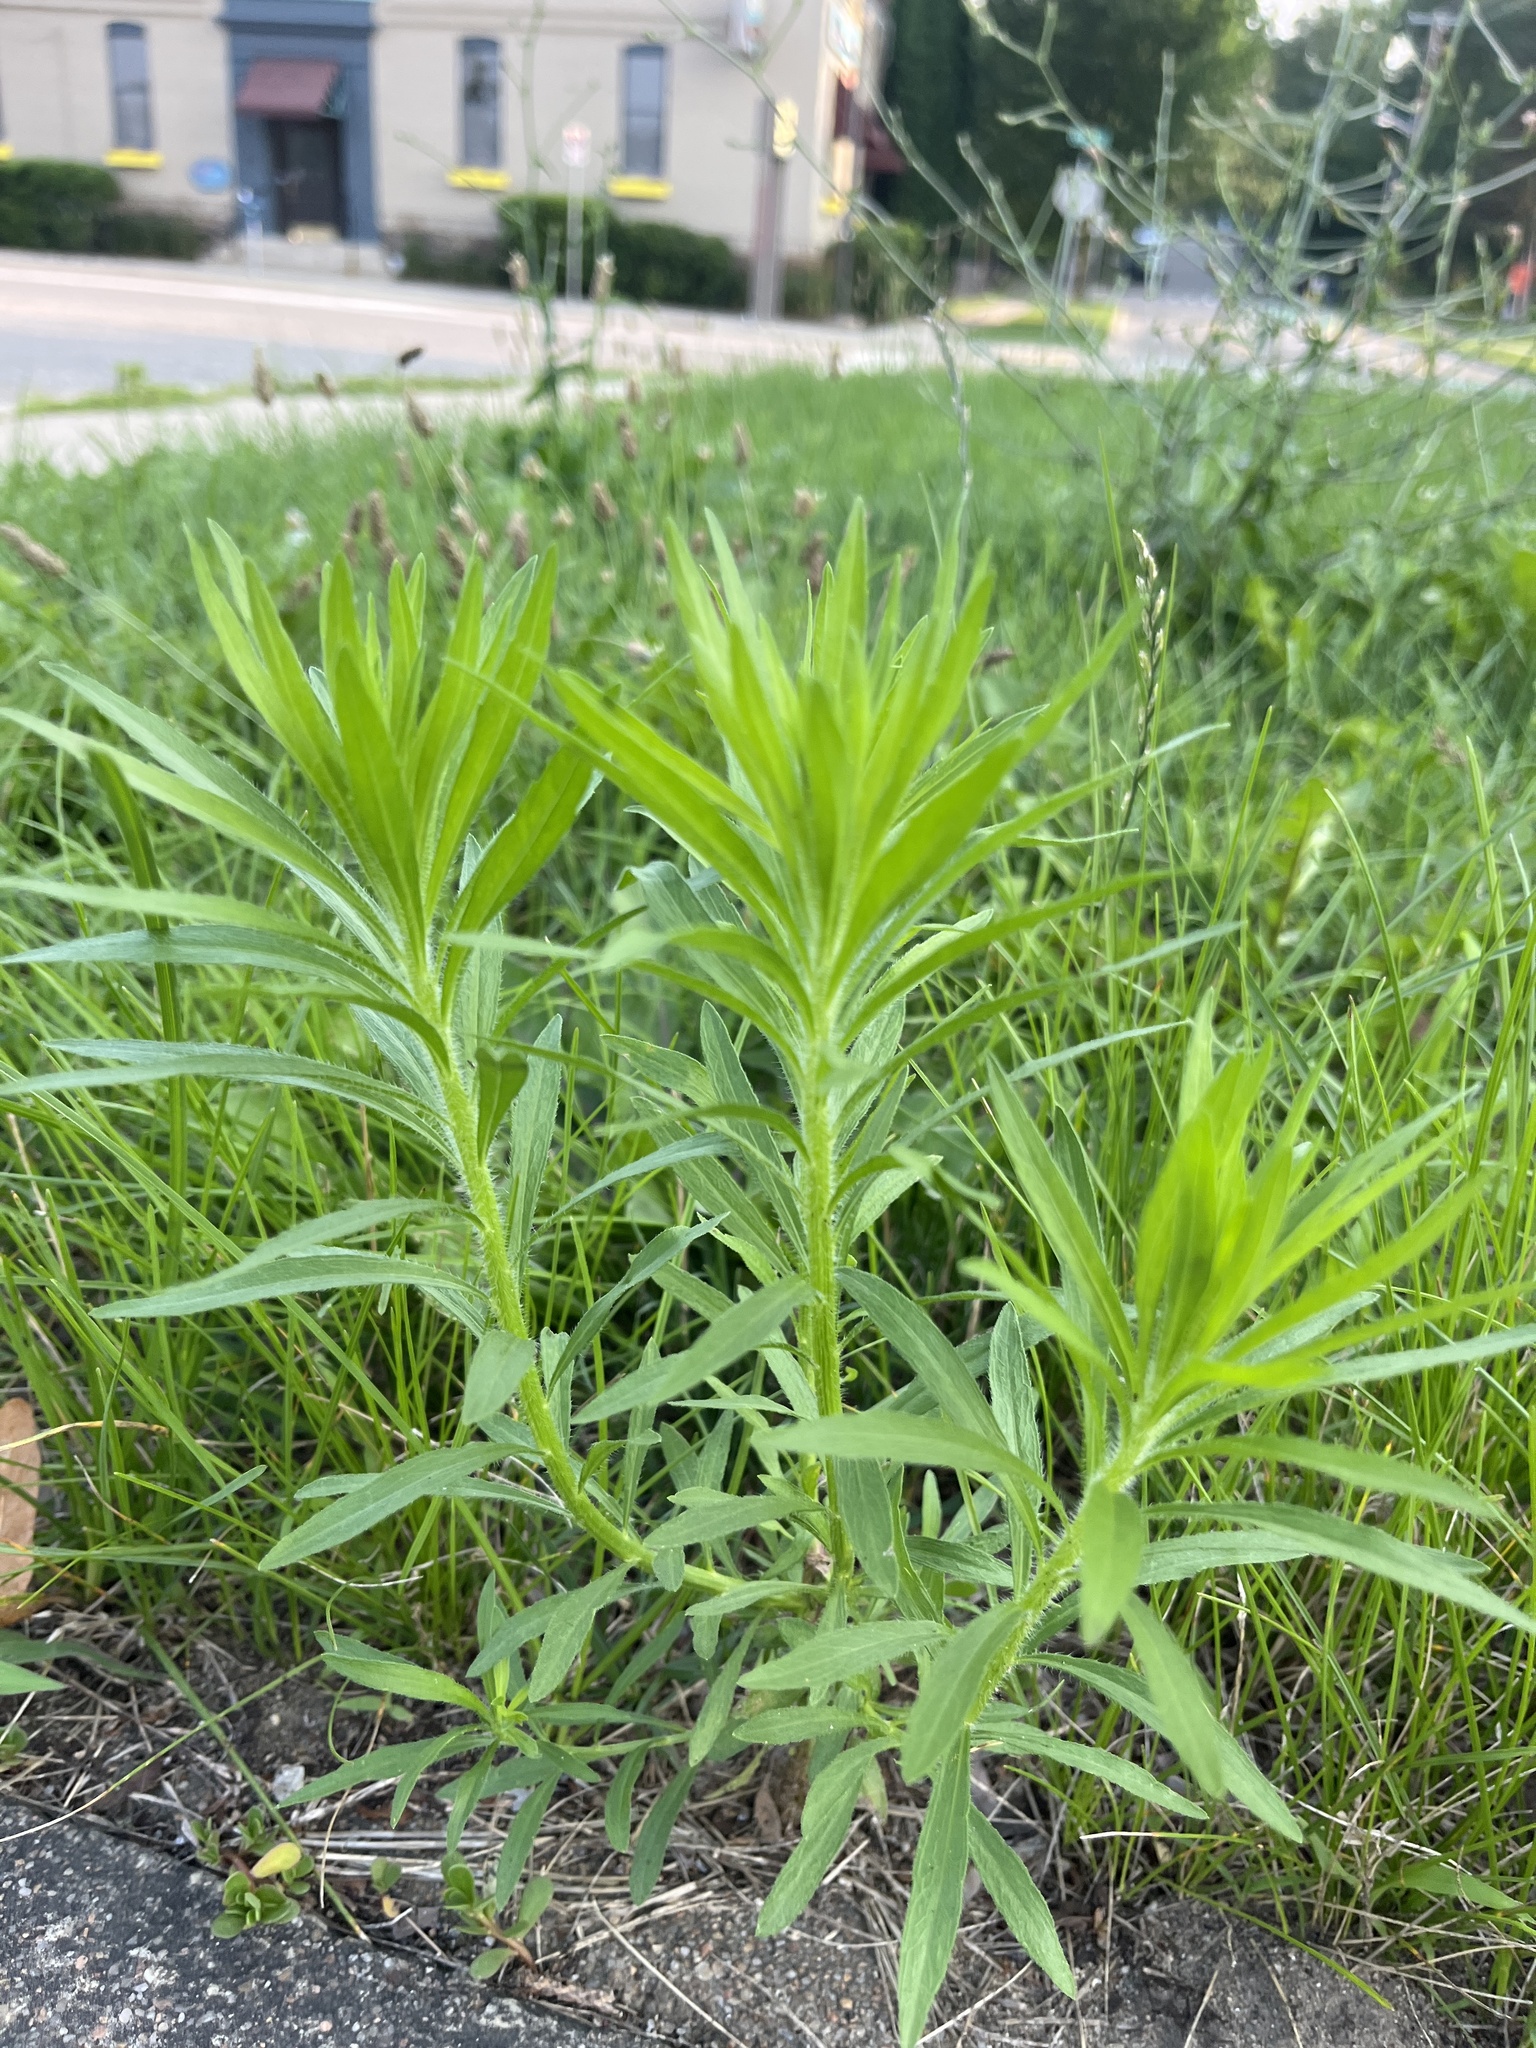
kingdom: Plantae
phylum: Tracheophyta
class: Magnoliopsida
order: Asterales
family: Asteraceae
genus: Erigeron
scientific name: Erigeron canadensis
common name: Canadian fleabane
